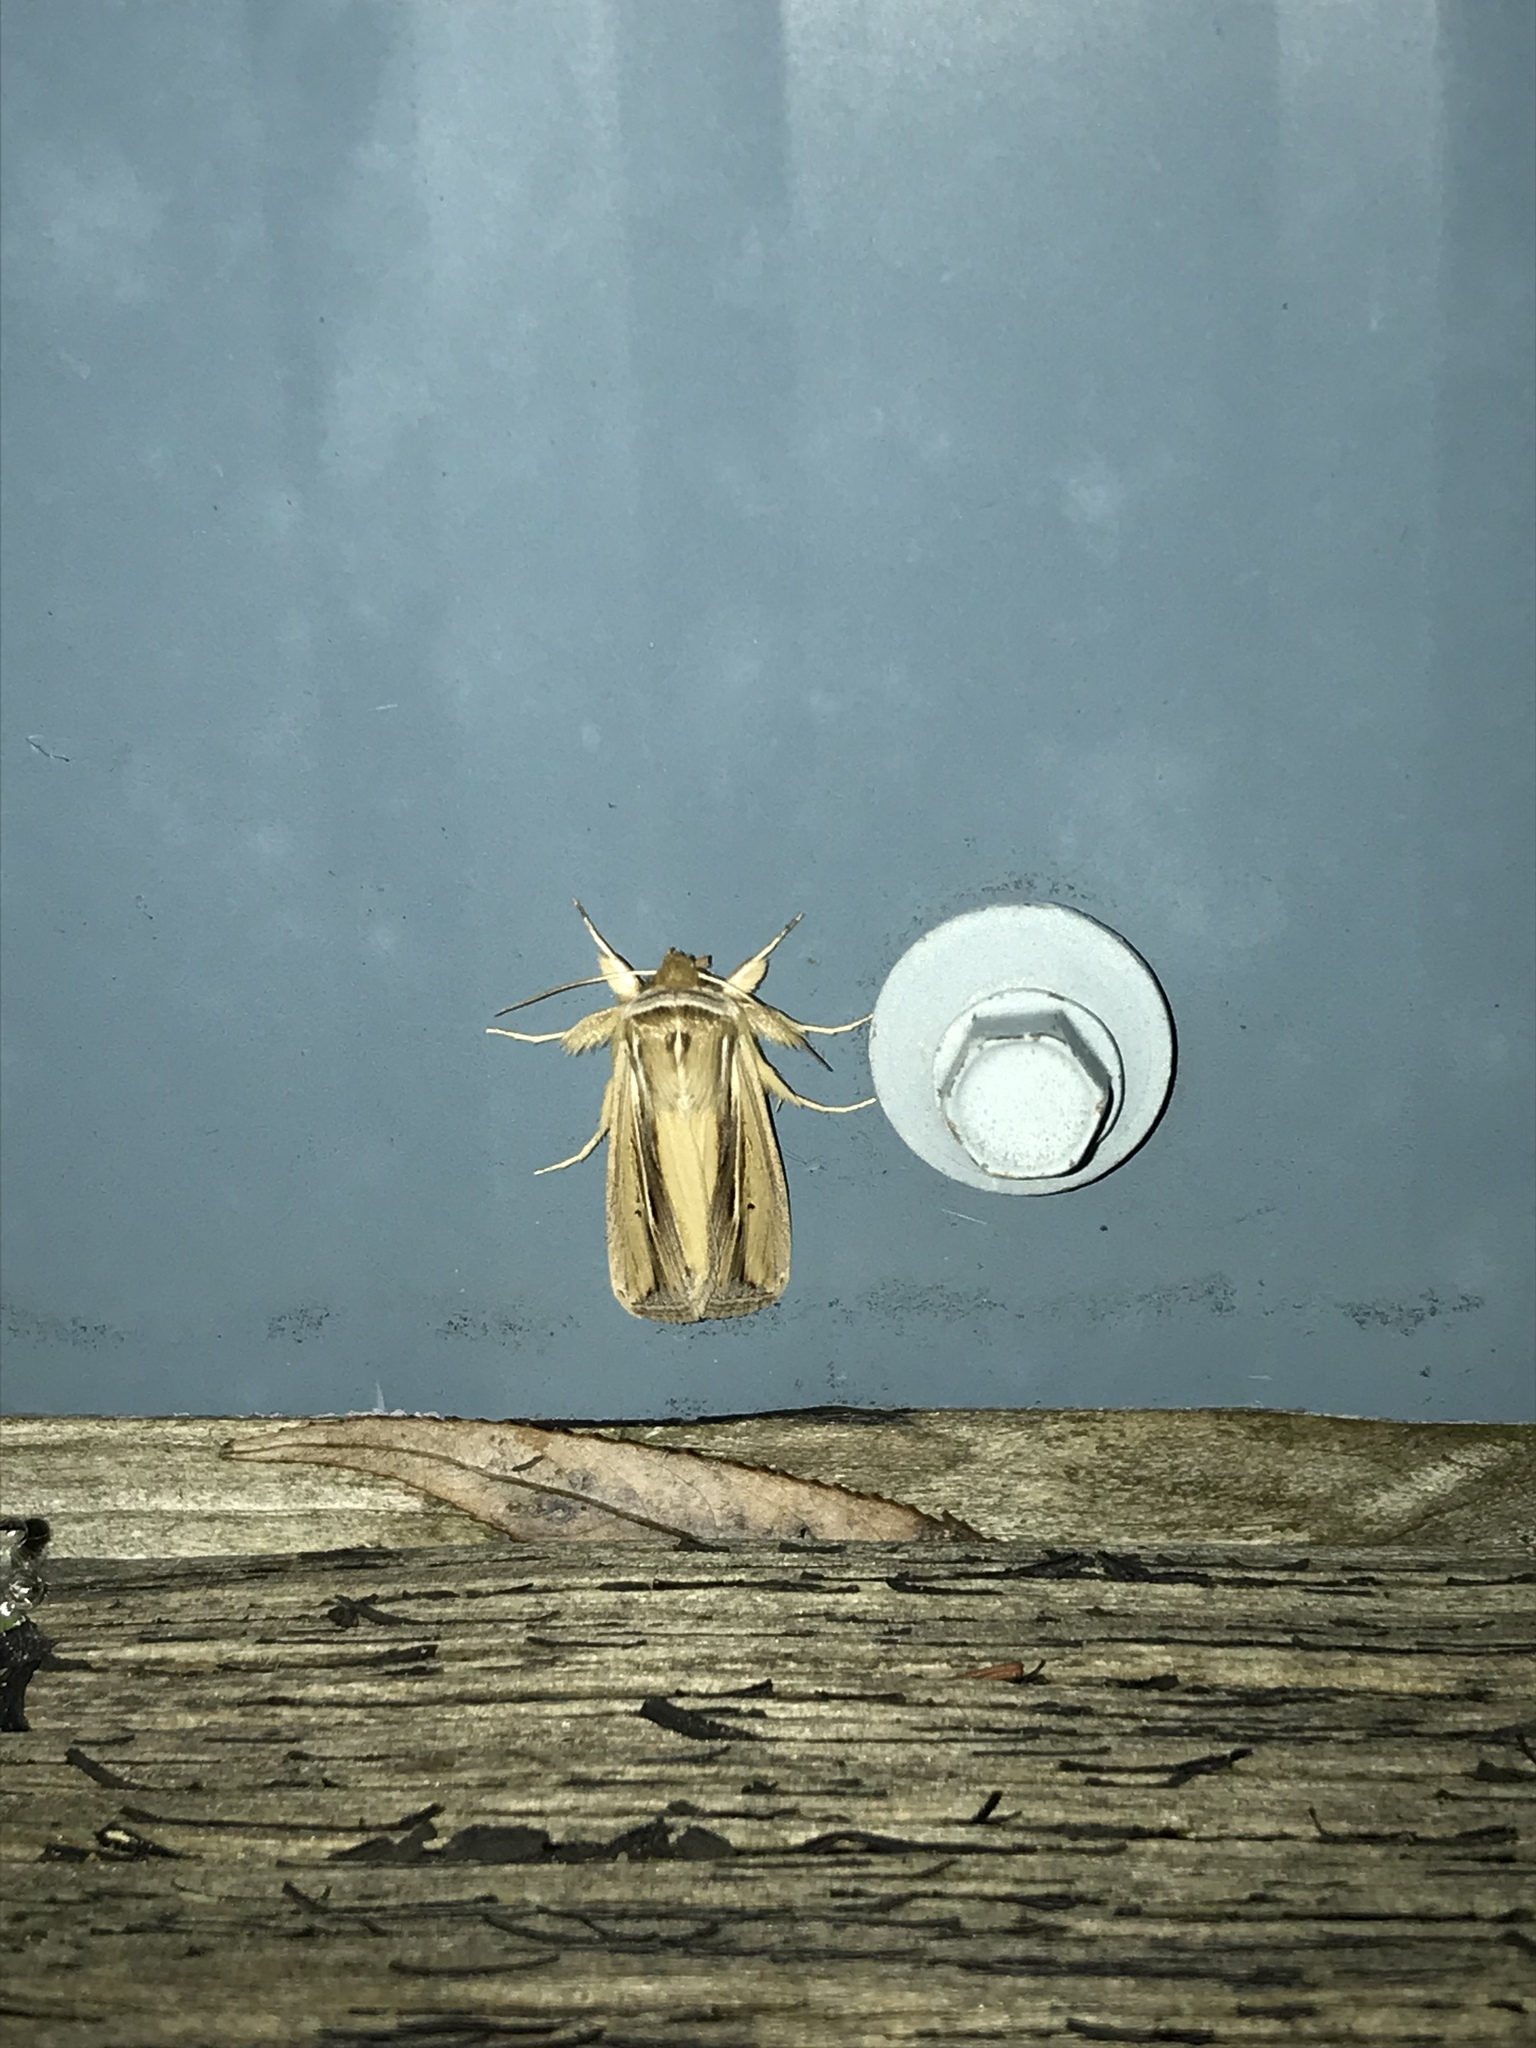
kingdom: Animalia
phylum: Arthropoda
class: Insecta
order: Lepidoptera
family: Noctuidae
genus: Dargida
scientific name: Dargida diffusa
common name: Wheat head armyworm
